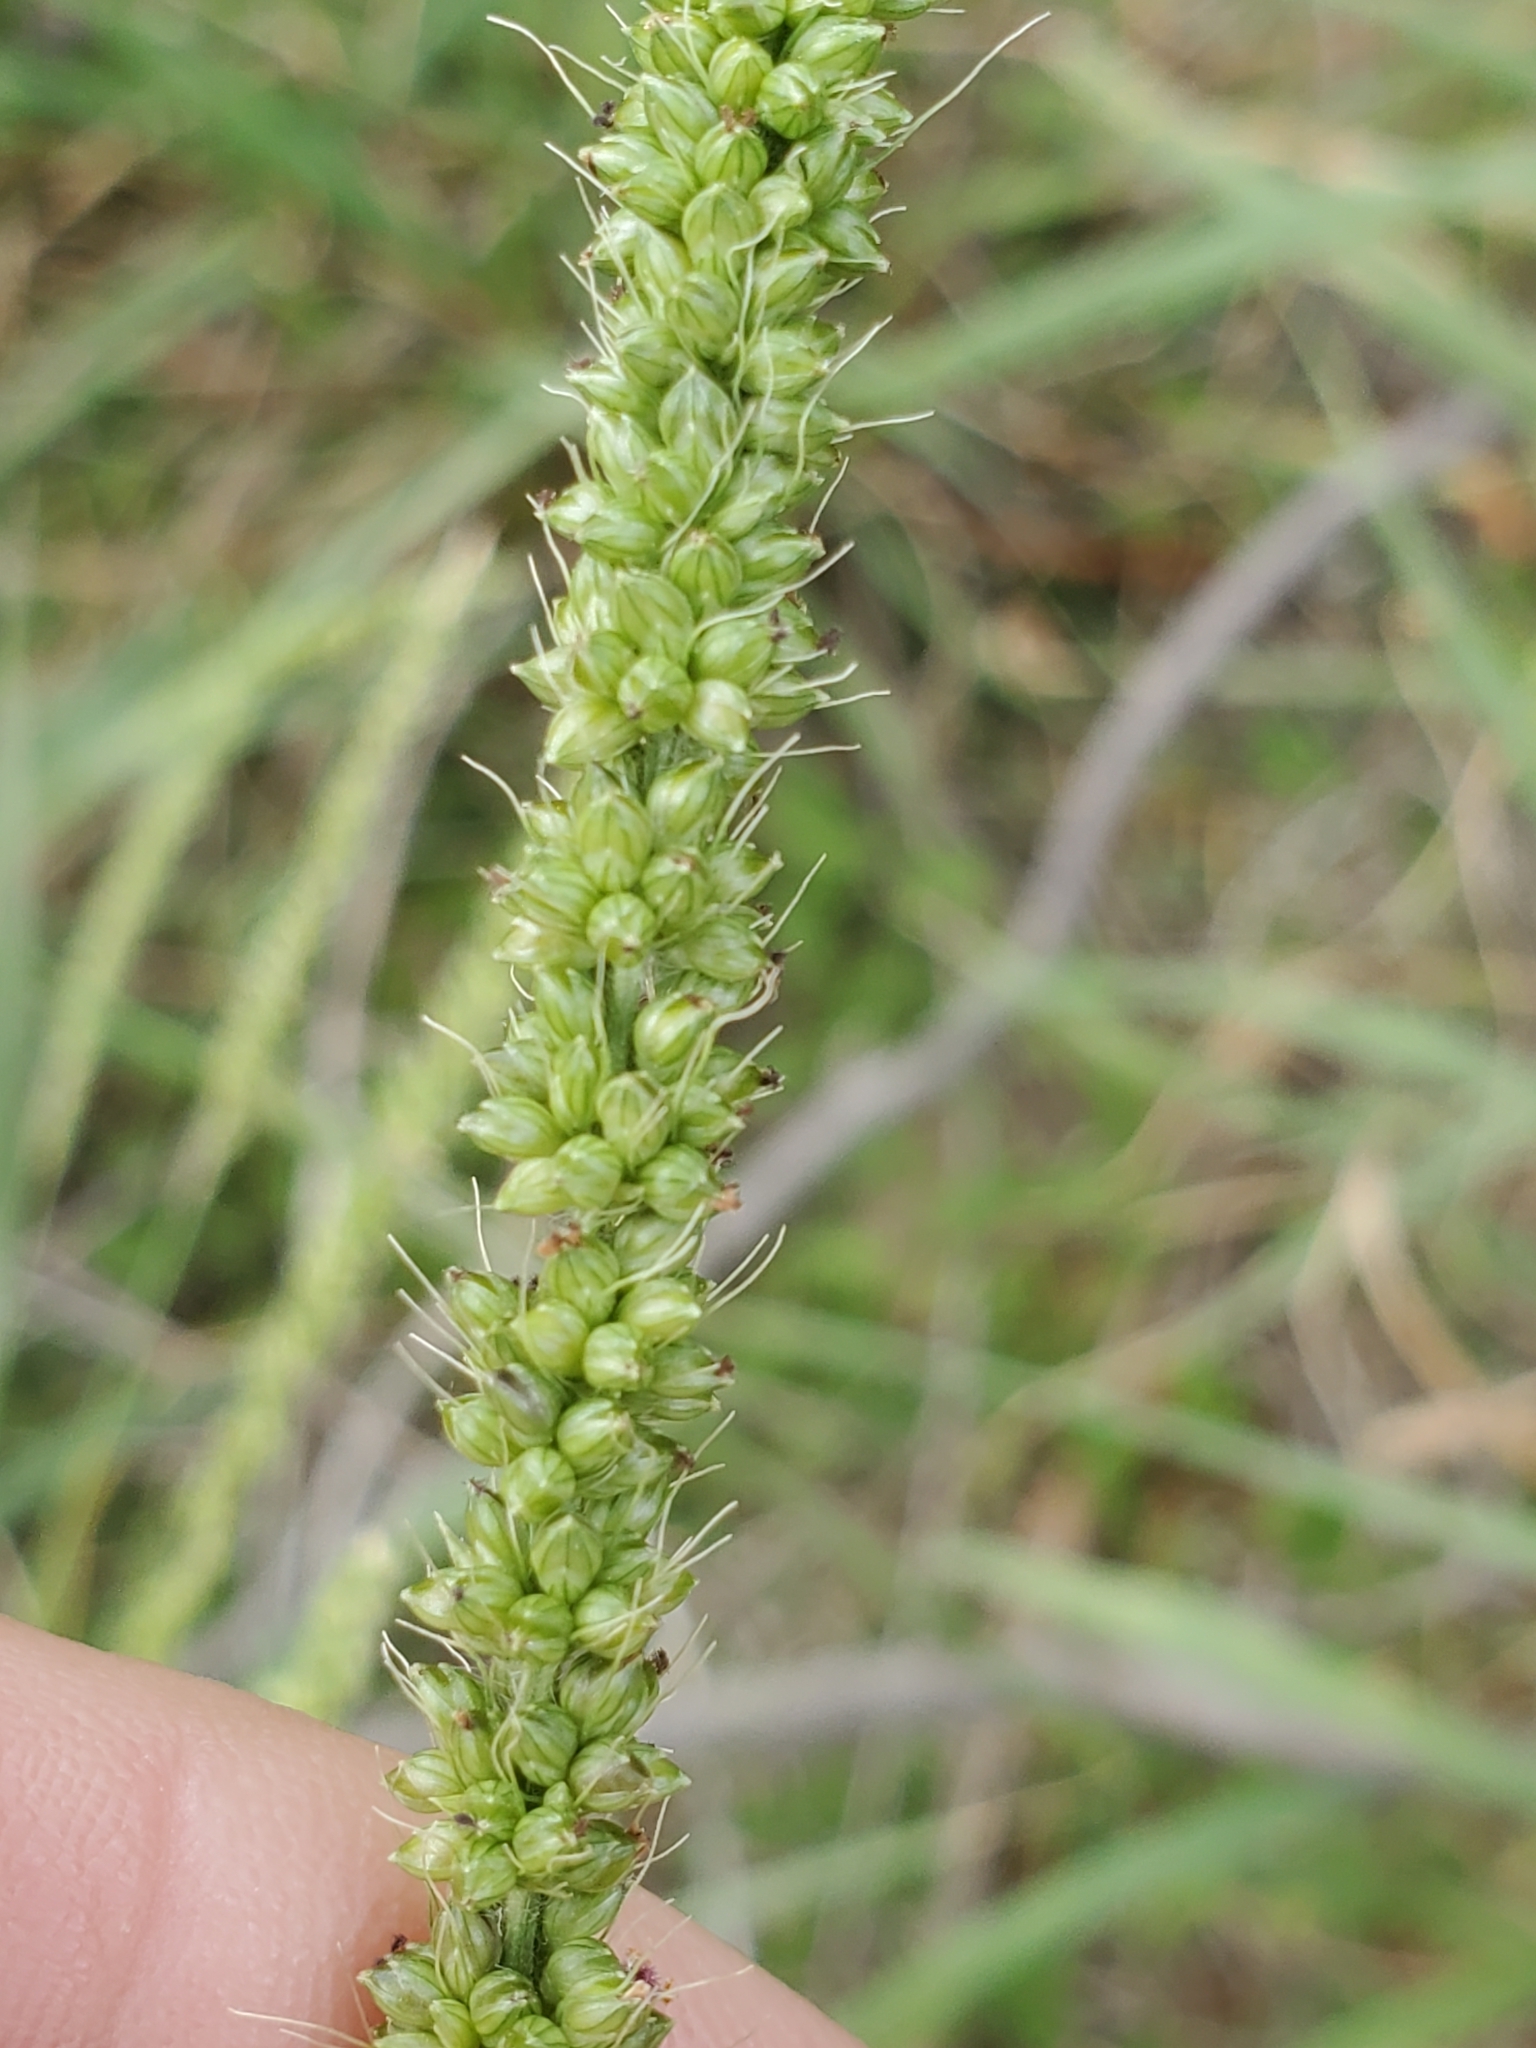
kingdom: Plantae
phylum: Tracheophyta
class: Liliopsida
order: Poales
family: Poaceae
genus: Setaria
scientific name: Setaria leucopila
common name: Plains bristle grass
